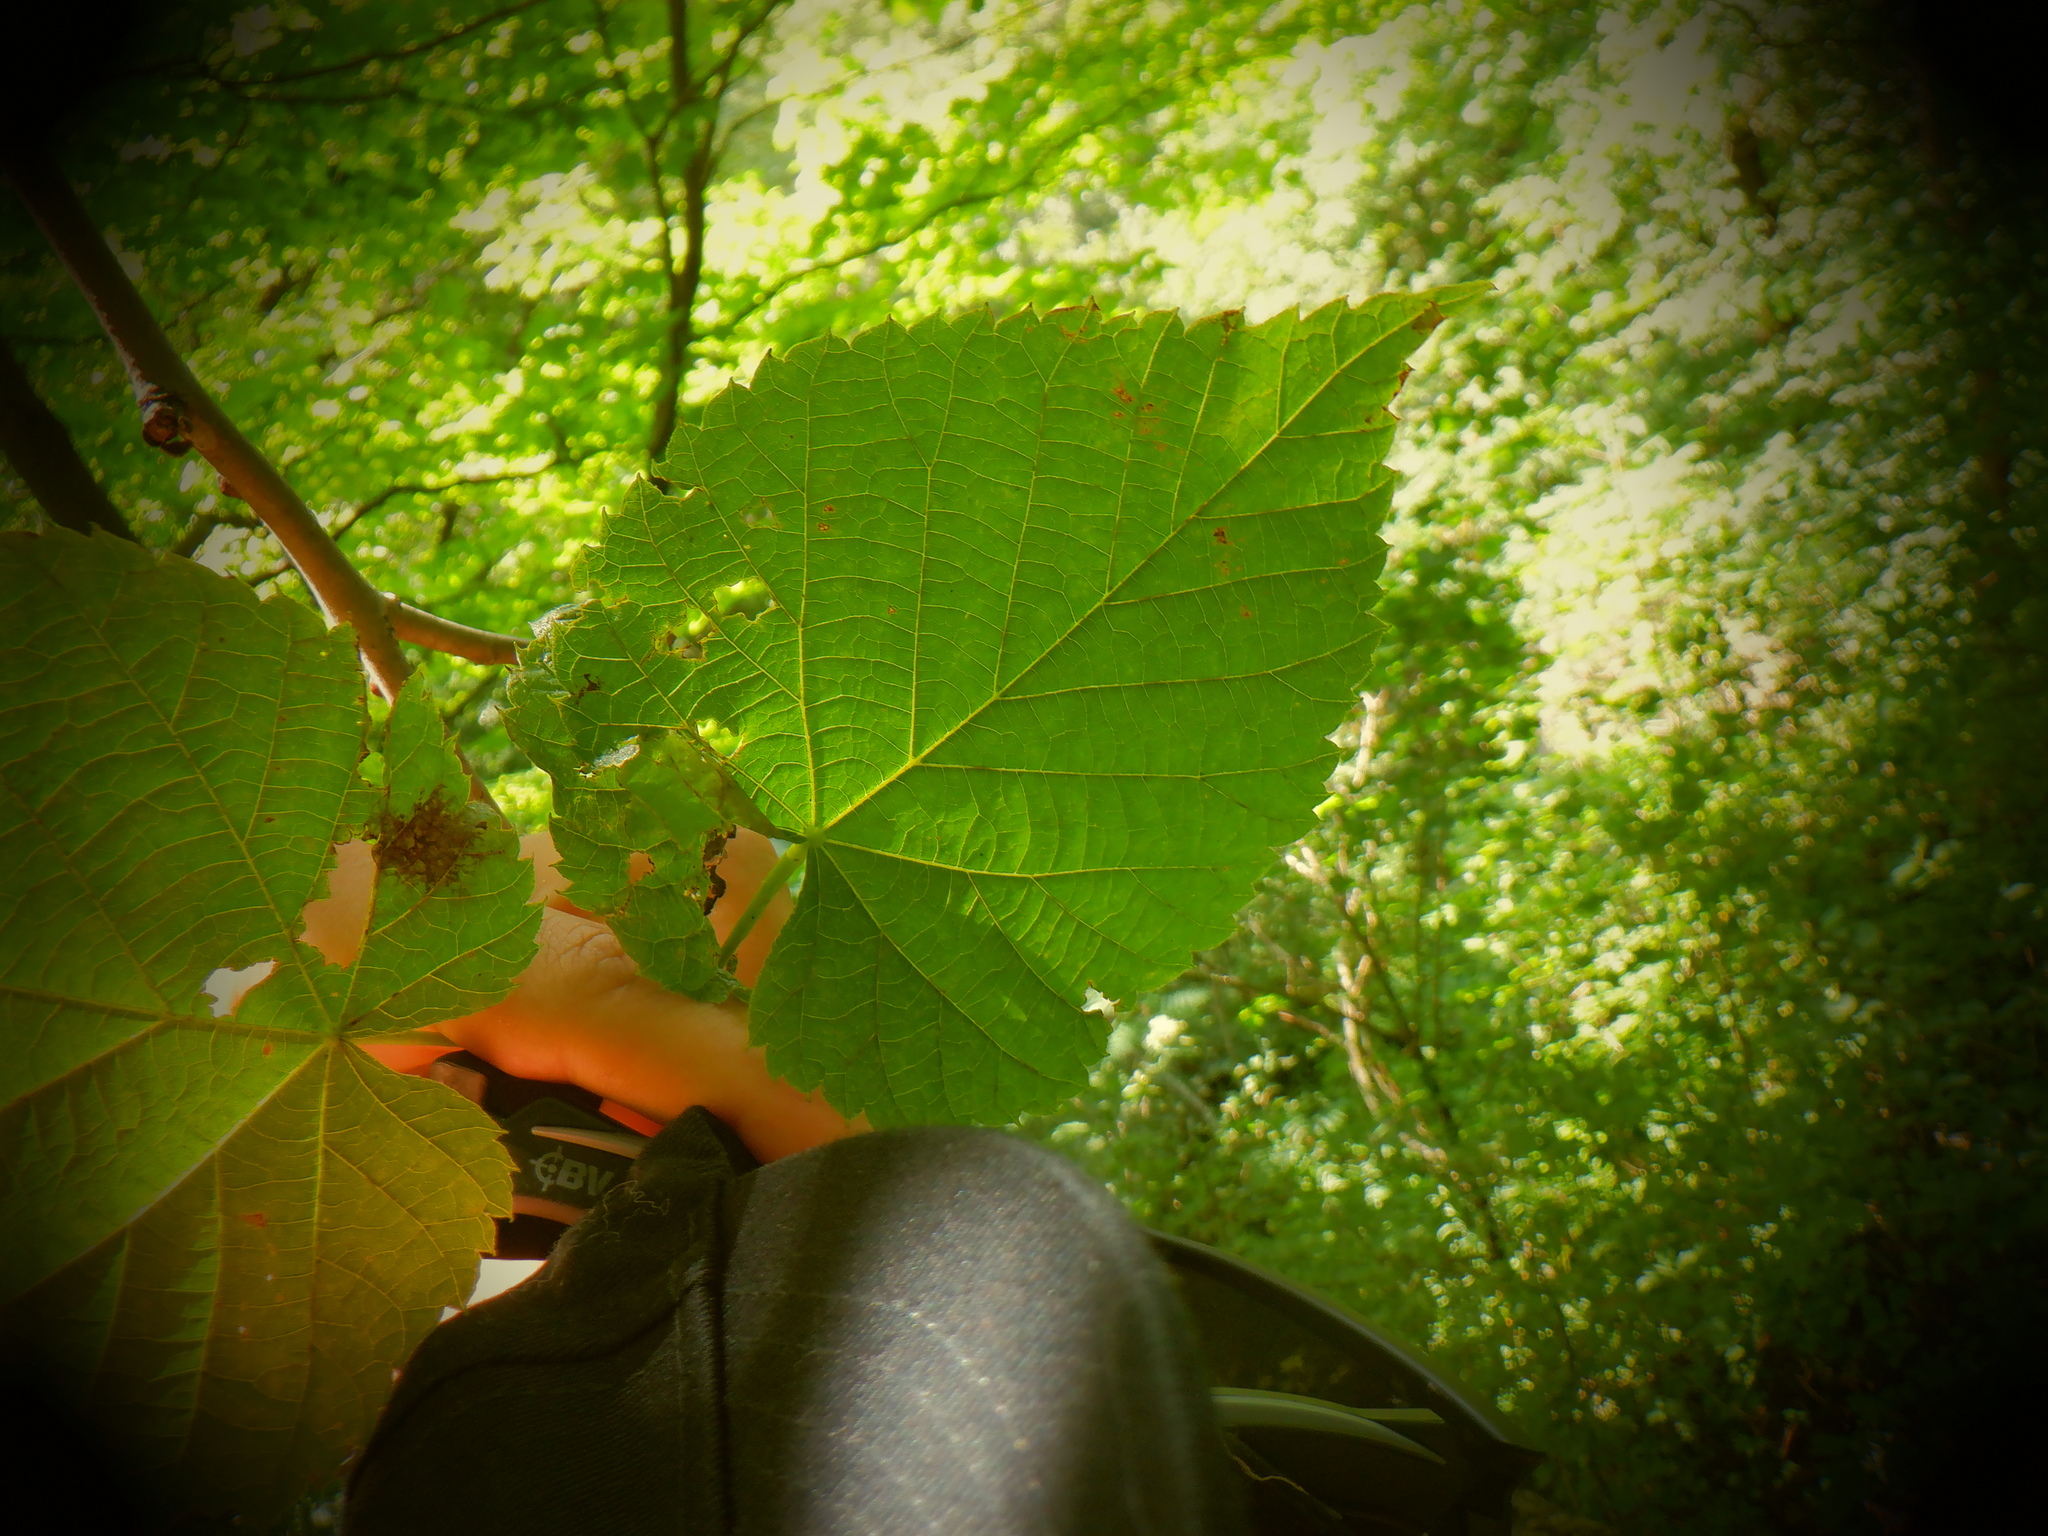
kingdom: Plantae
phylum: Tracheophyta
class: Magnoliopsida
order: Malvales
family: Malvaceae
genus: Tilia
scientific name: Tilia americana
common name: Basswood
